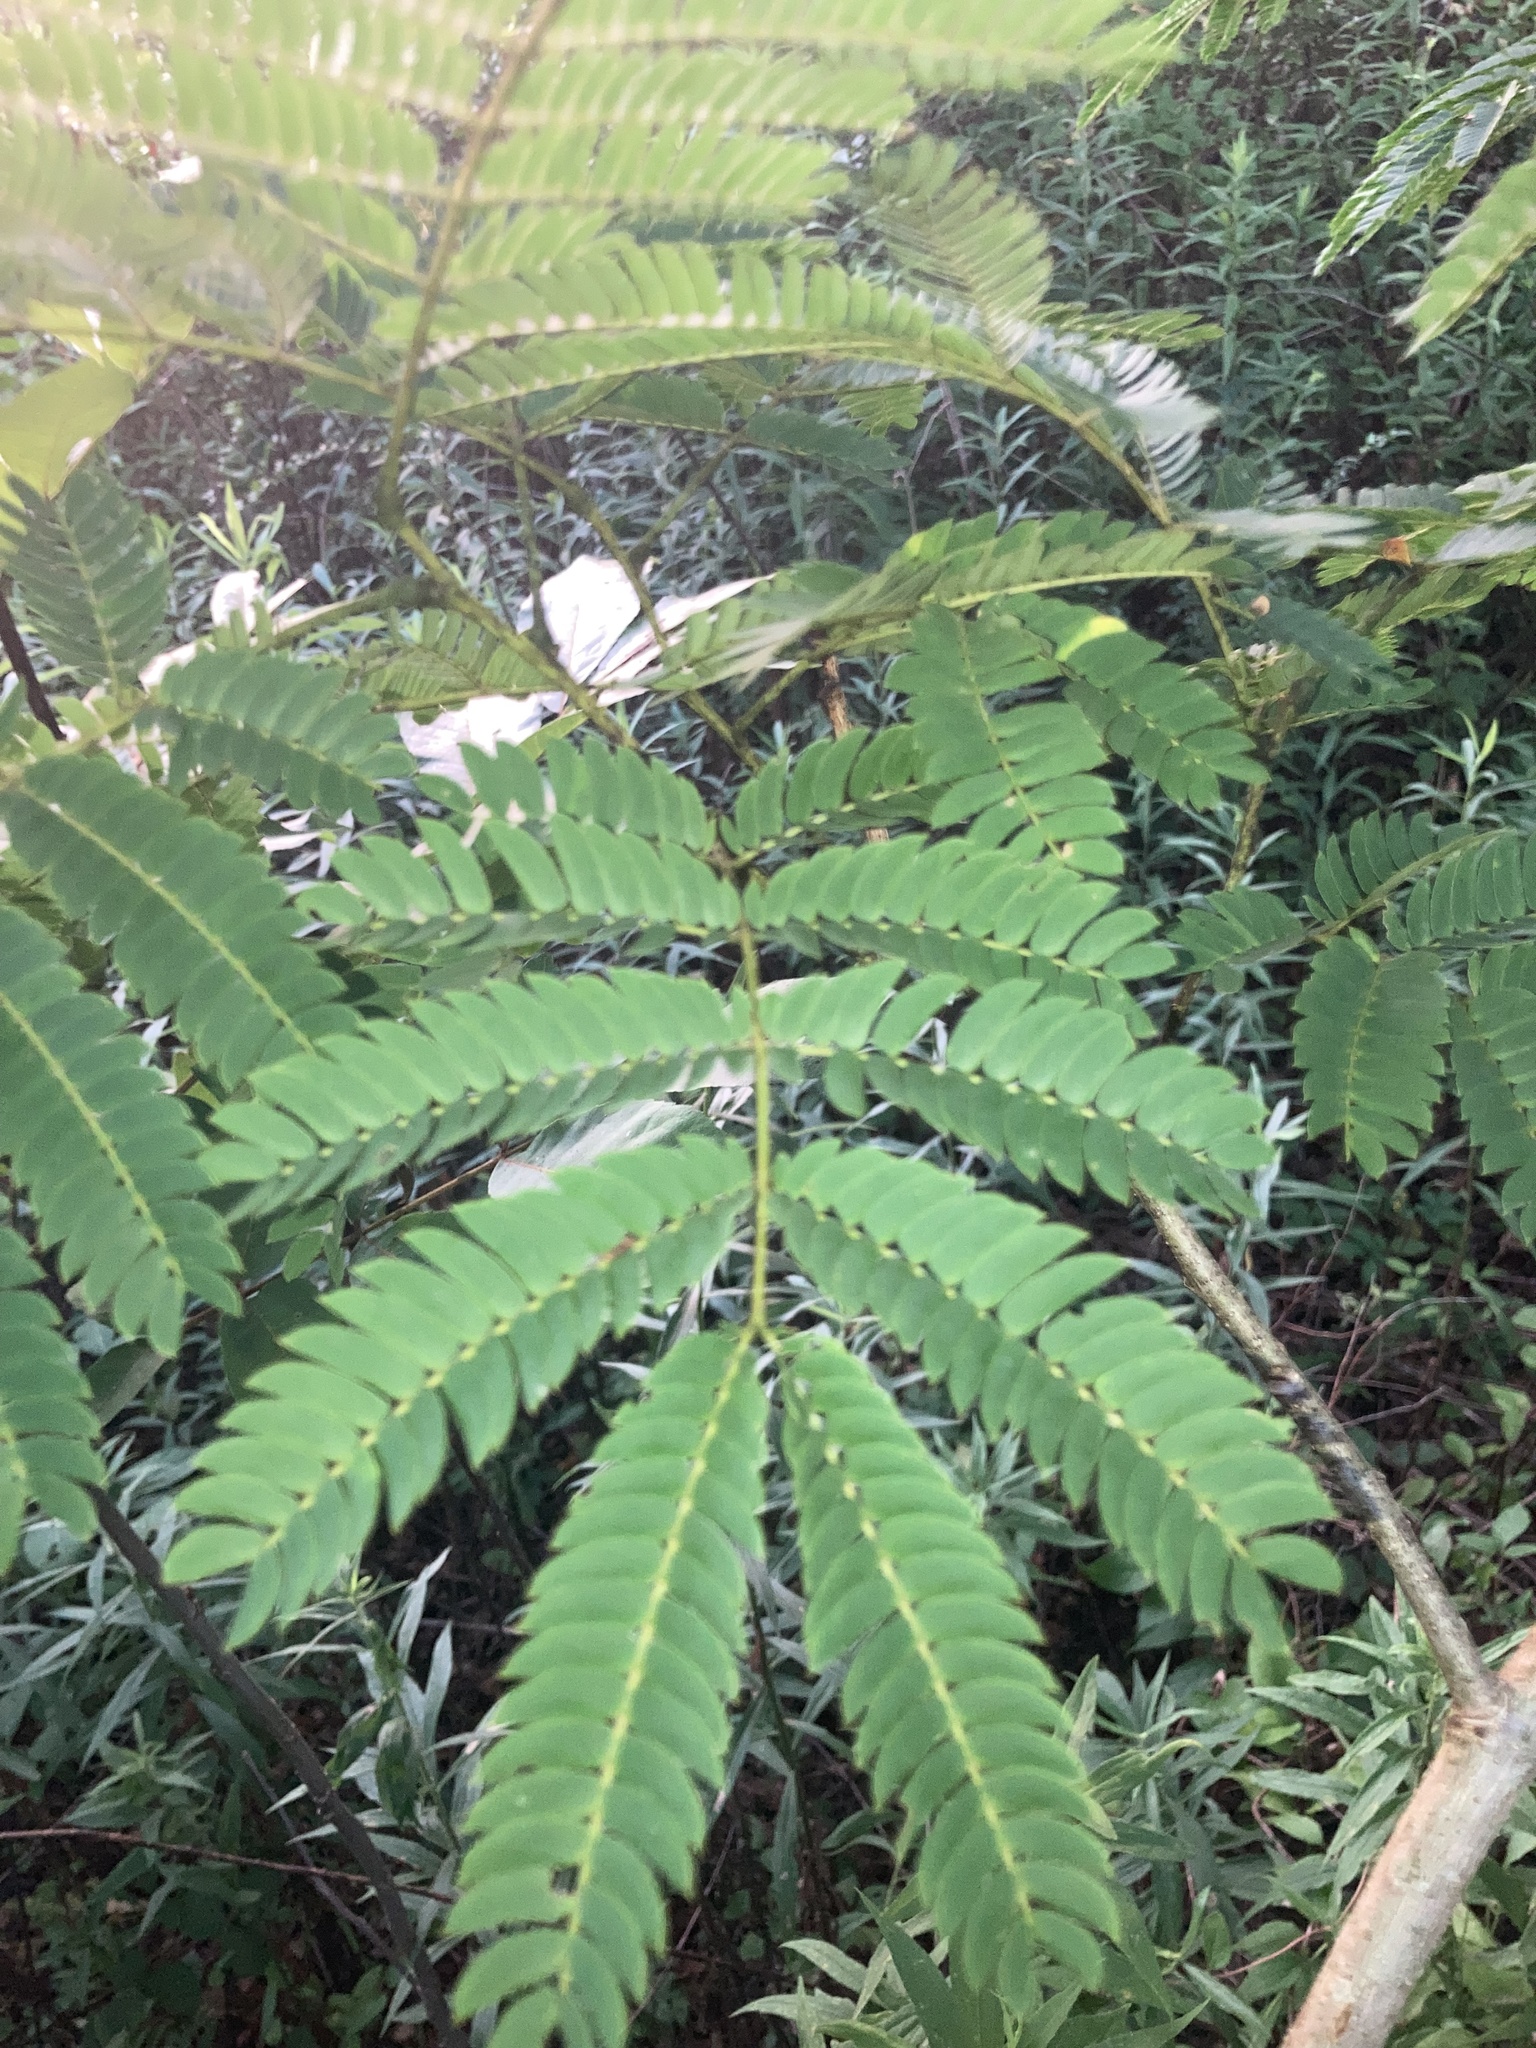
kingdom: Plantae
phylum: Tracheophyta
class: Magnoliopsida
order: Fabales
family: Fabaceae
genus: Albizia
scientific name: Albizia julibrissin
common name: Silktree
